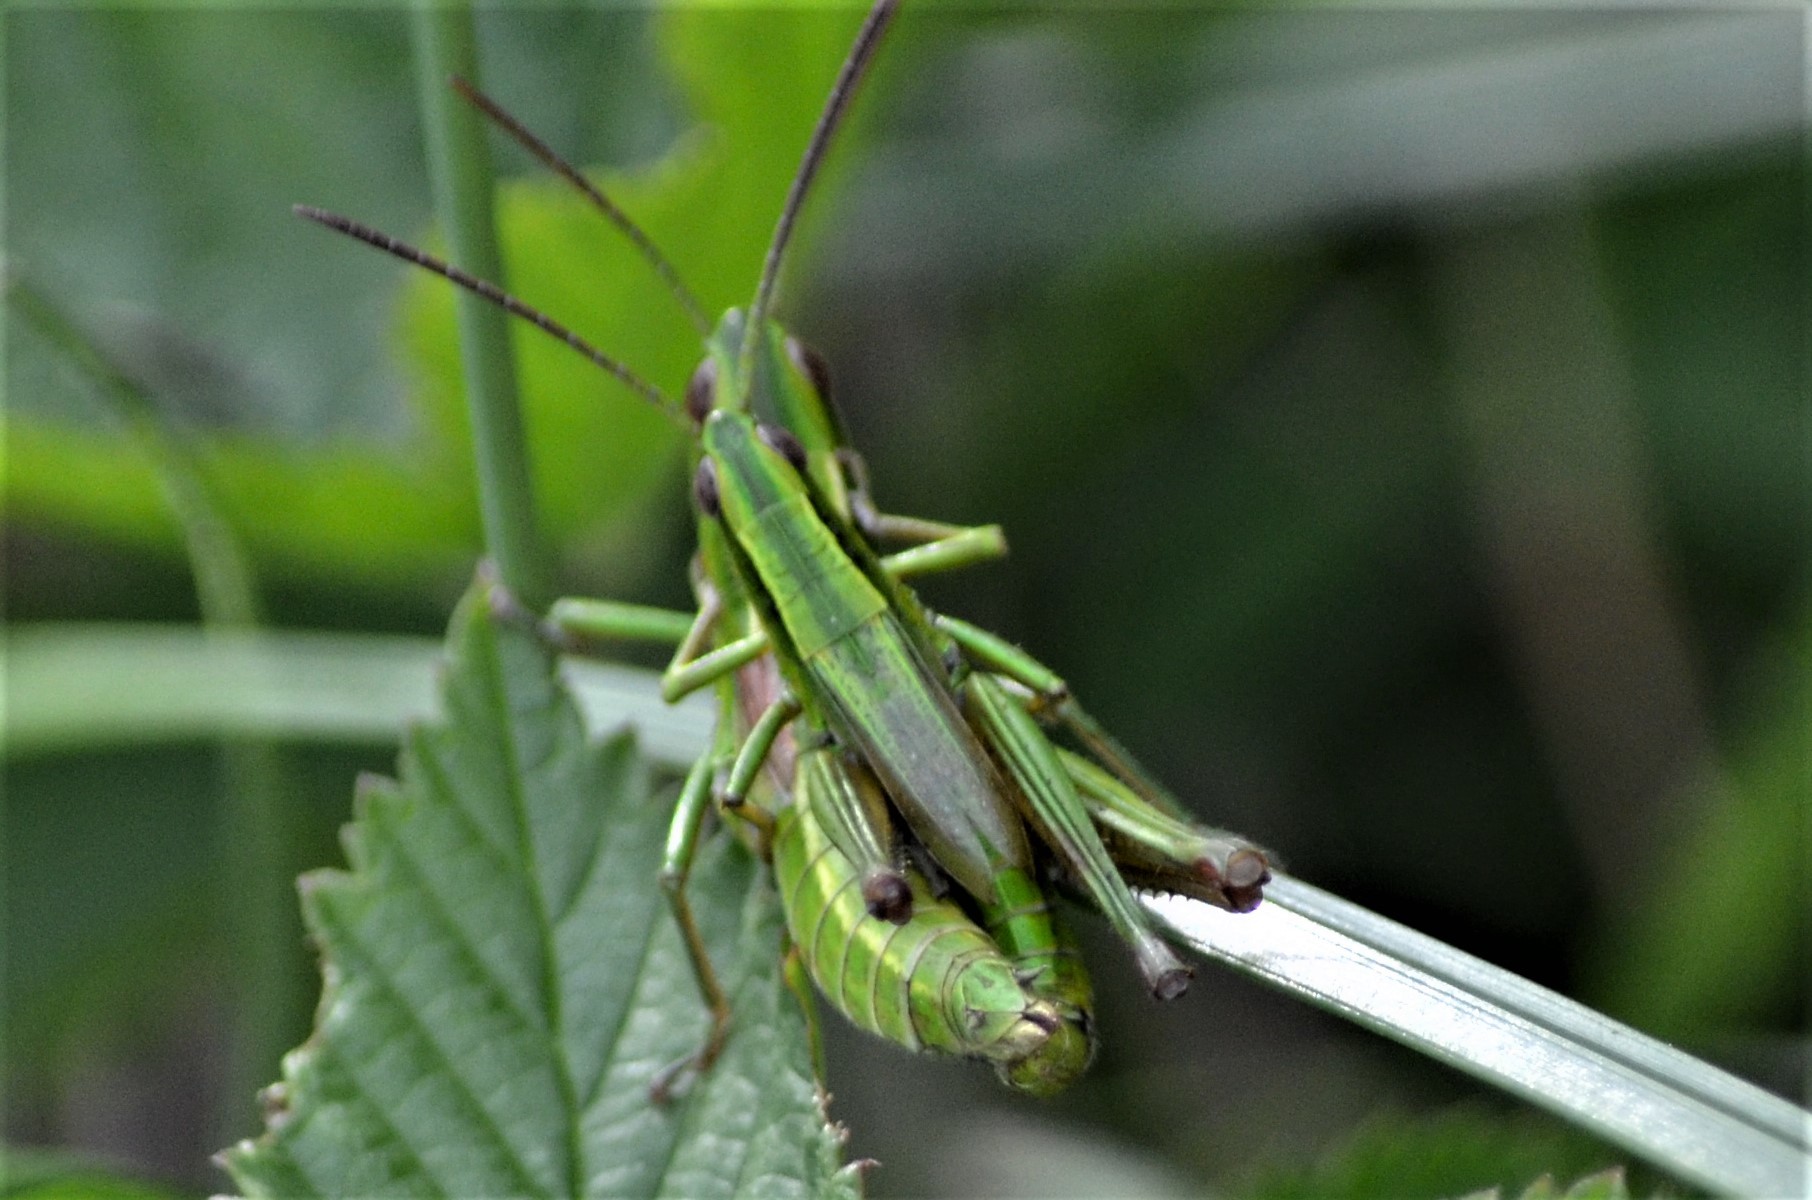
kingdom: Animalia
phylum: Arthropoda
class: Insecta
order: Orthoptera
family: Acrididae
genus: Euthystira
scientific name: Euthystira brachyptera
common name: Small gold grasshopper
